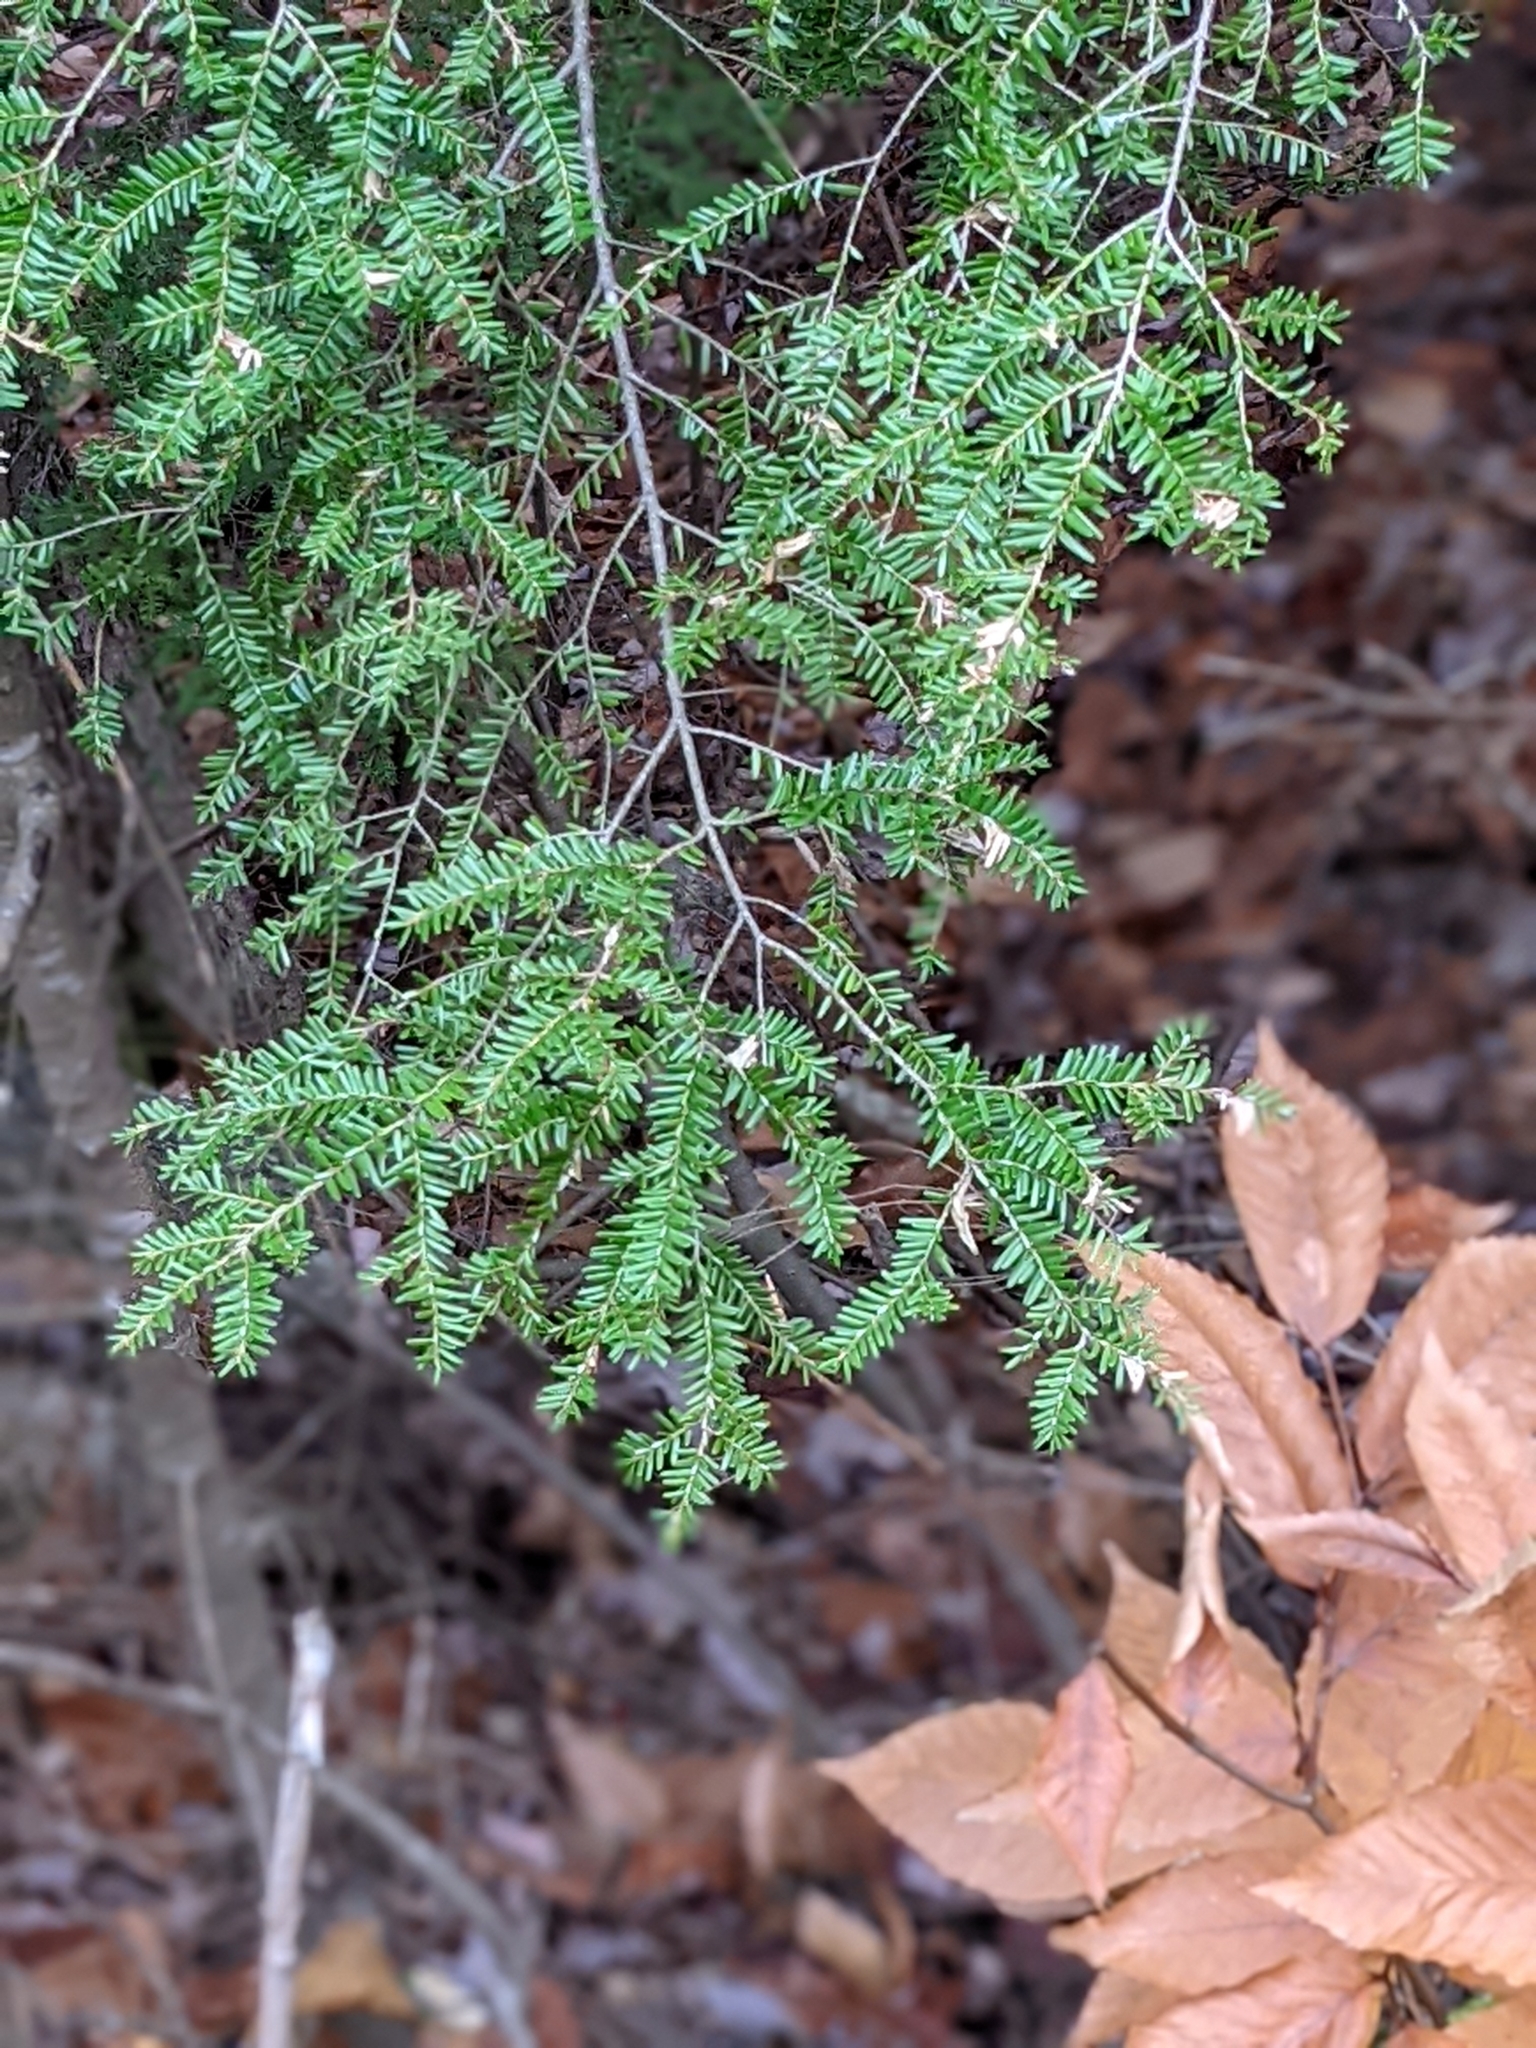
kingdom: Plantae
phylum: Tracheophyta
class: Pinopsida
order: Pinales
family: Pinaceae
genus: Tsuga
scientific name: Tsuga canadensis
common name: Eastern hemlock
